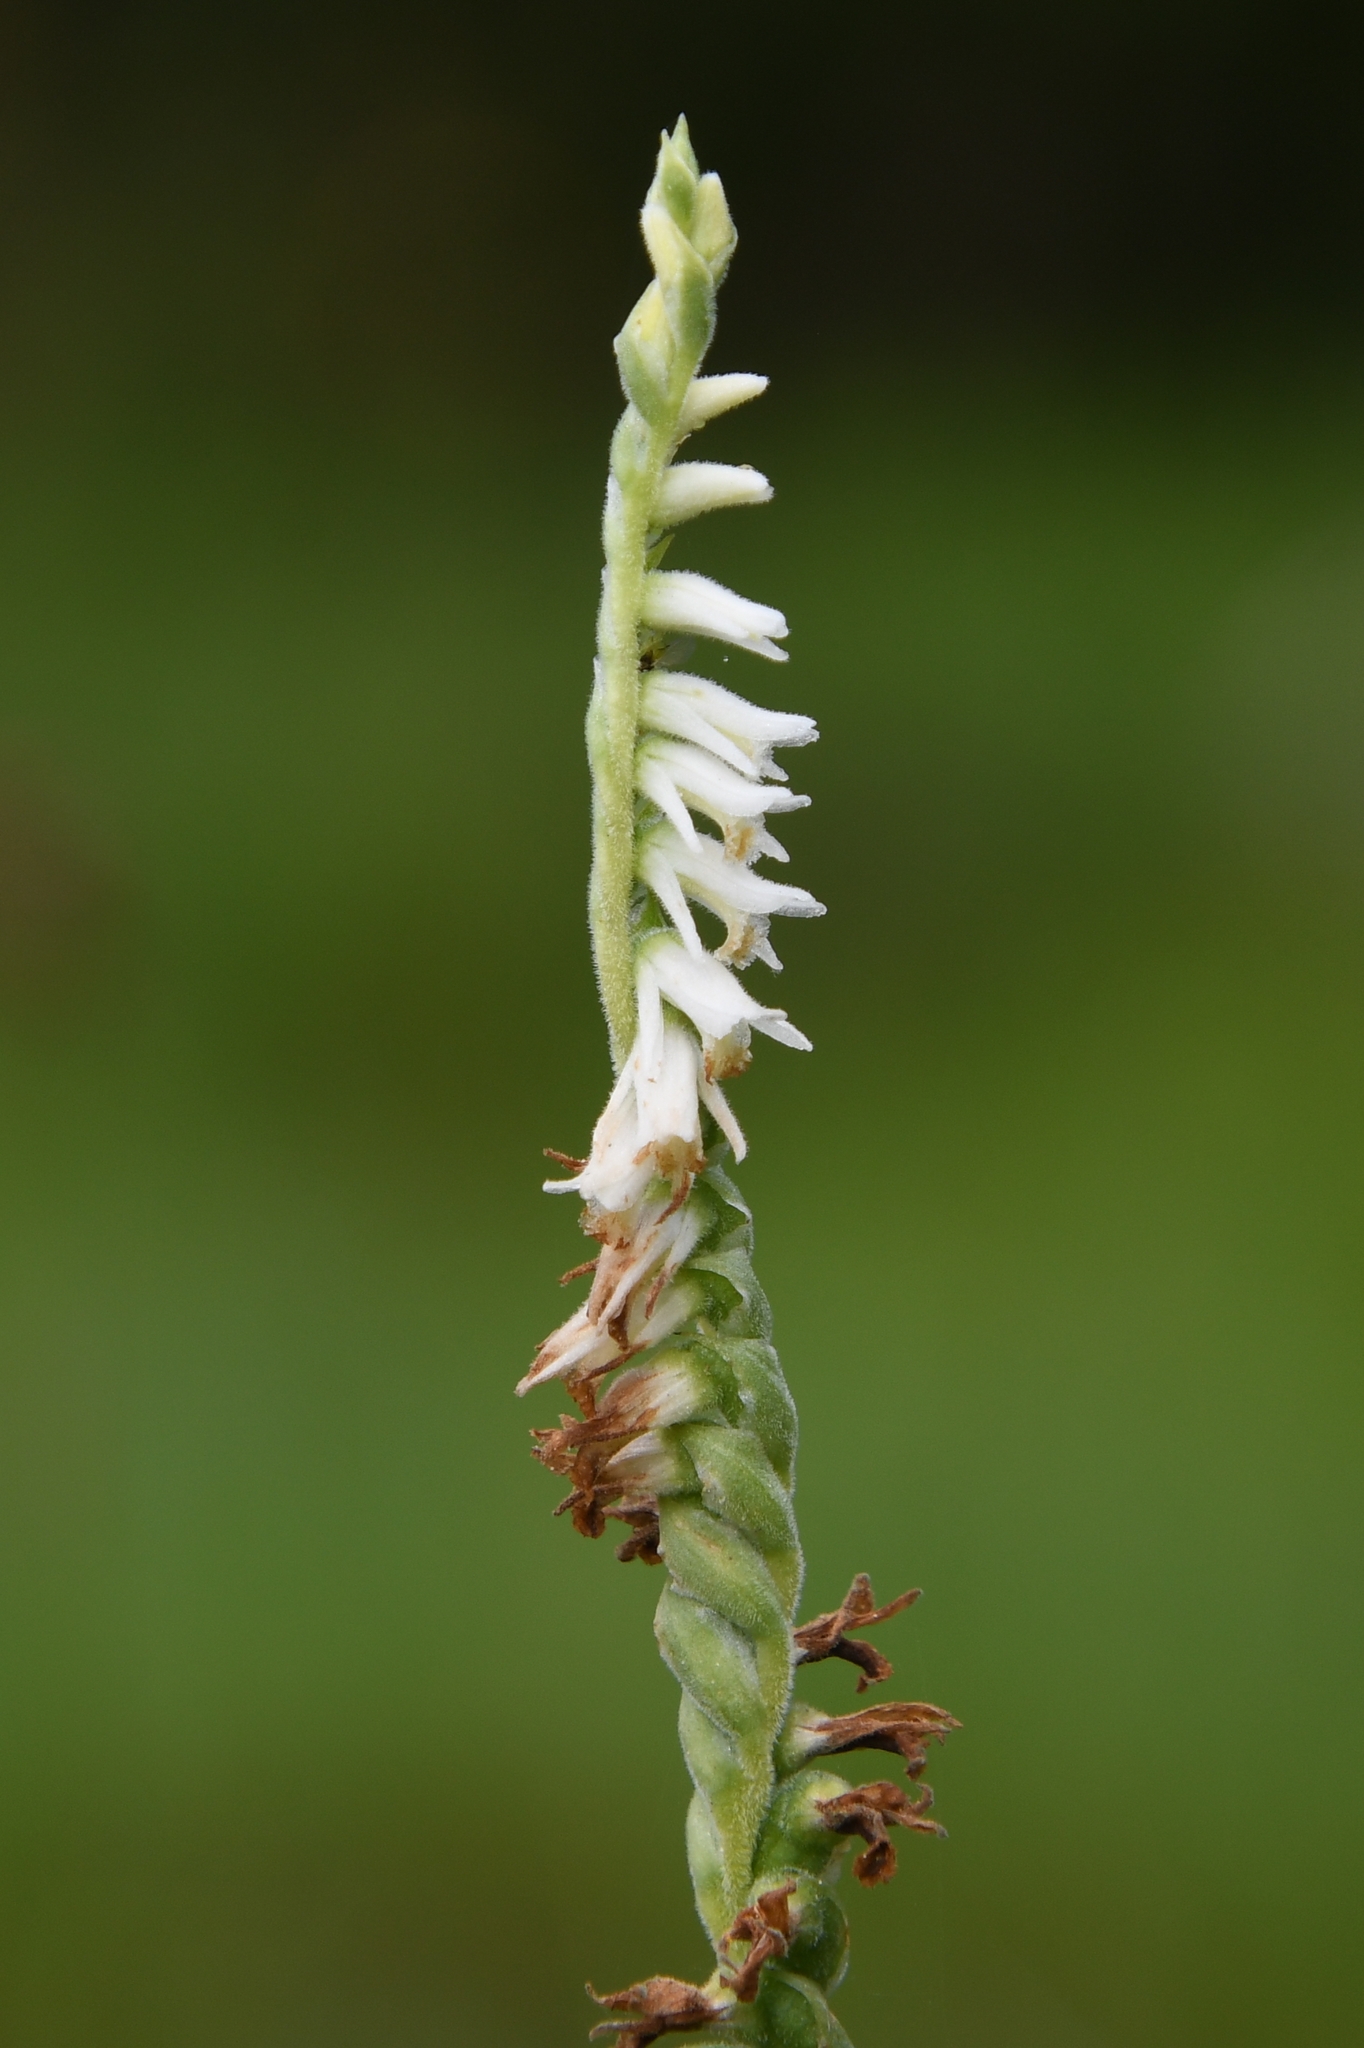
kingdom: Plantae
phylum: Tracheophyta
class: Liliopsida
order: Asparagales
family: Orchidaceae
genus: Spiranthes
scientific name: Spiranthes vernalis
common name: Spring ladies'-tresses
